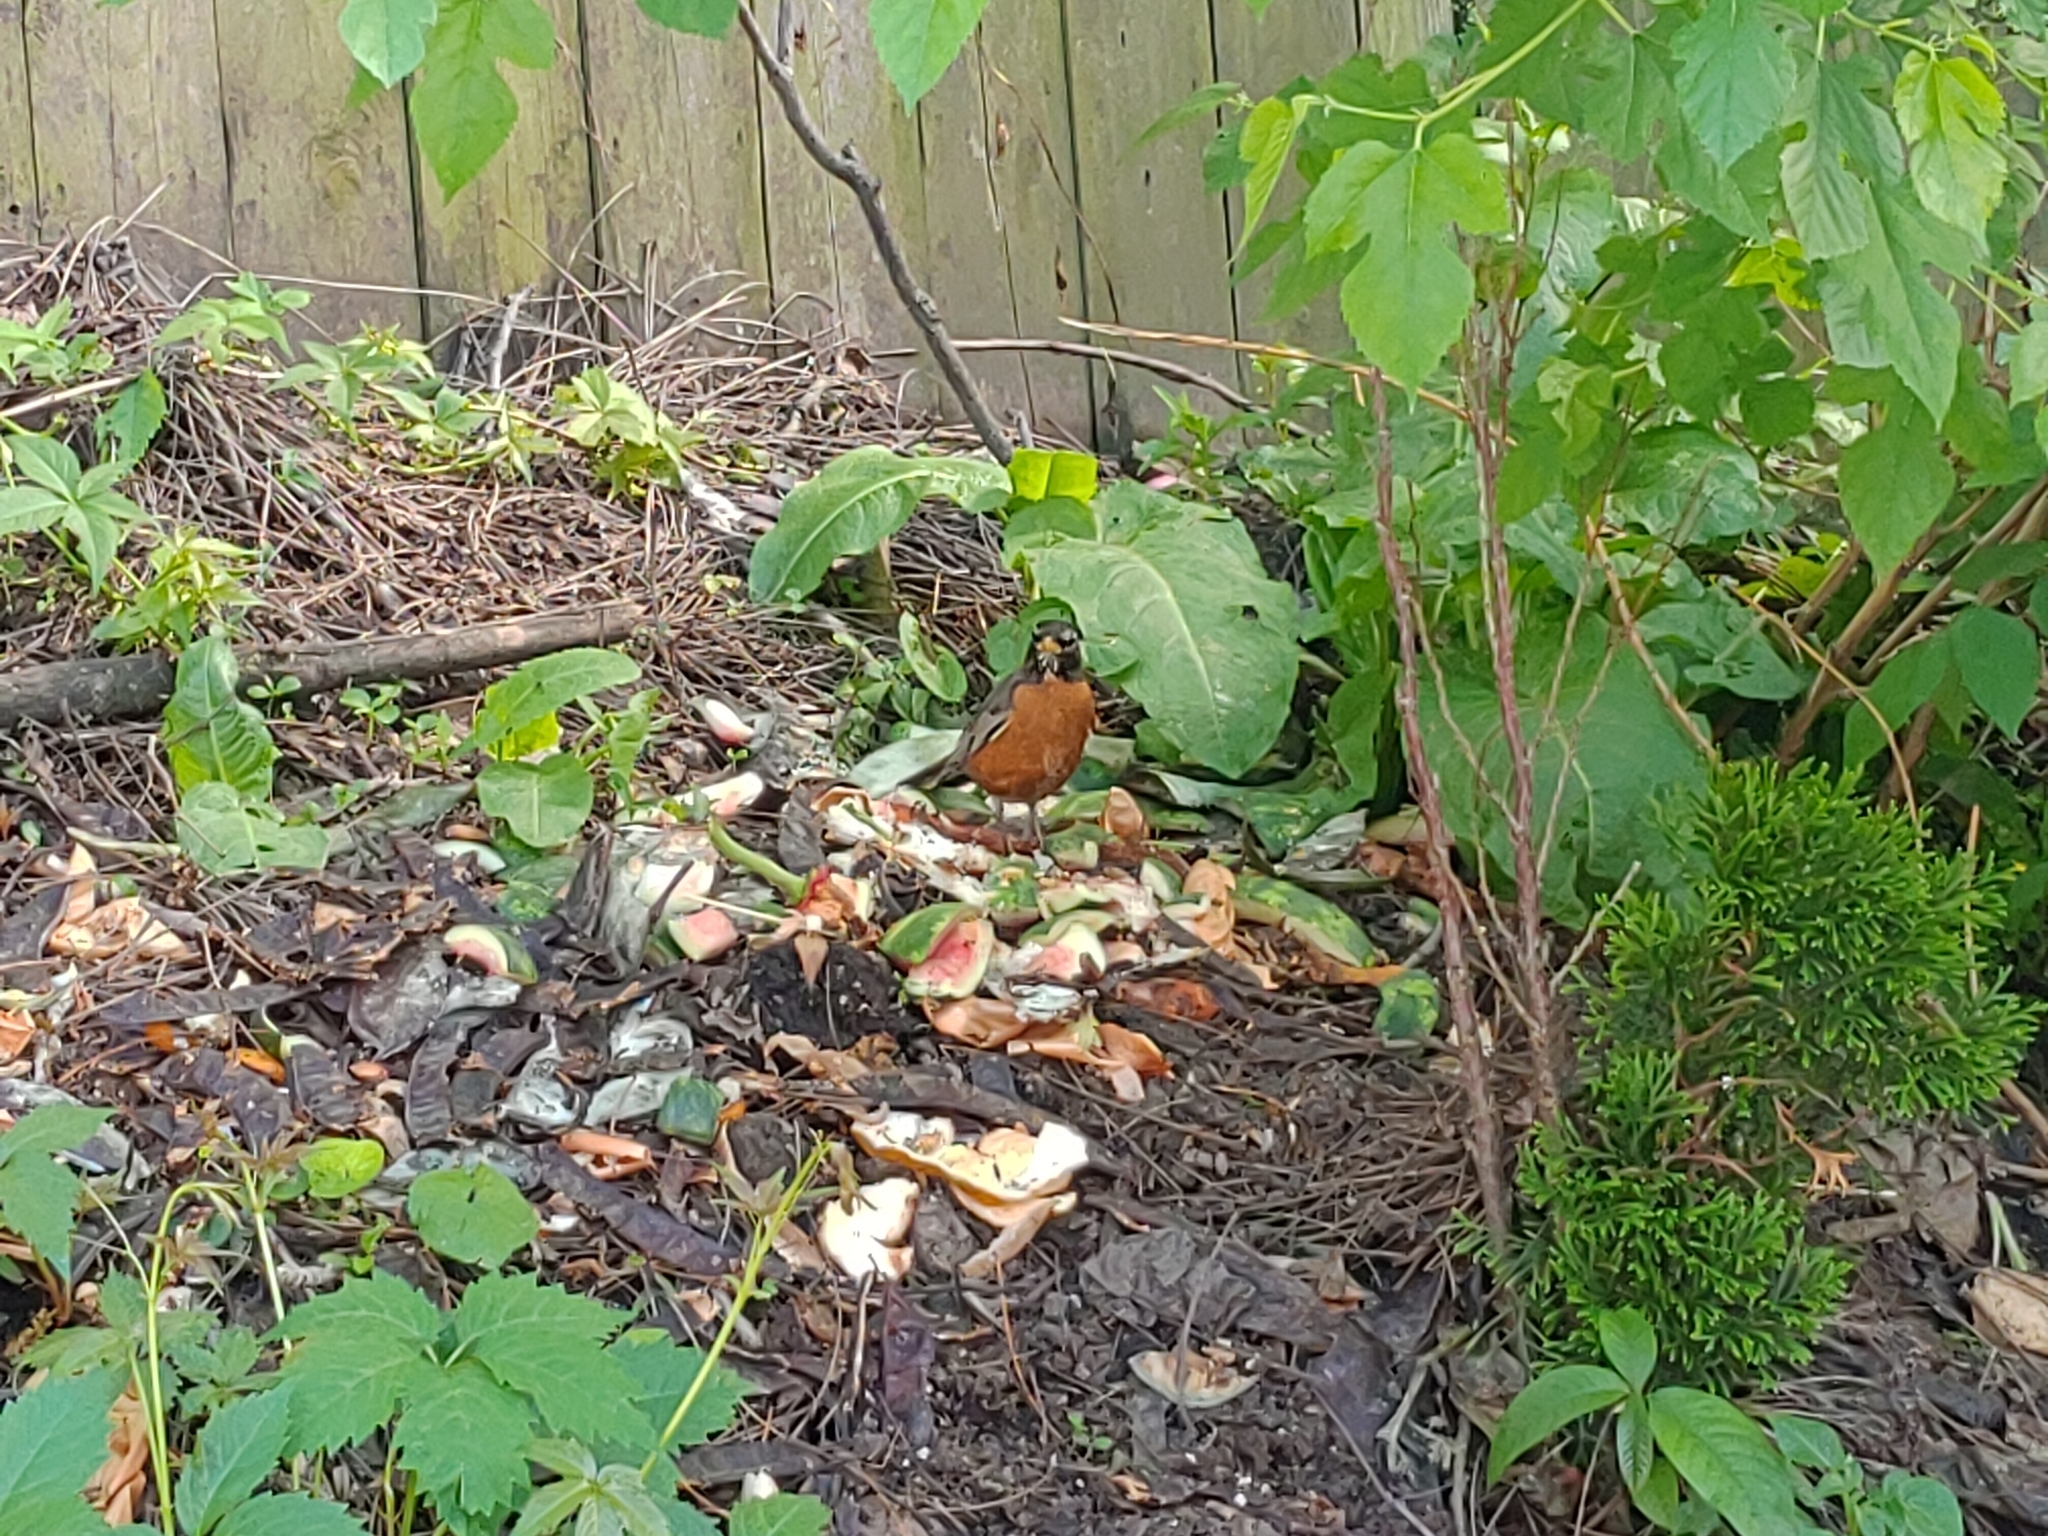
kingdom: Animalia
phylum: Chordata
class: Aves
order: Passeriformes
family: Turdidae
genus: Turdus
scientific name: Turdus migratorius
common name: American robin
